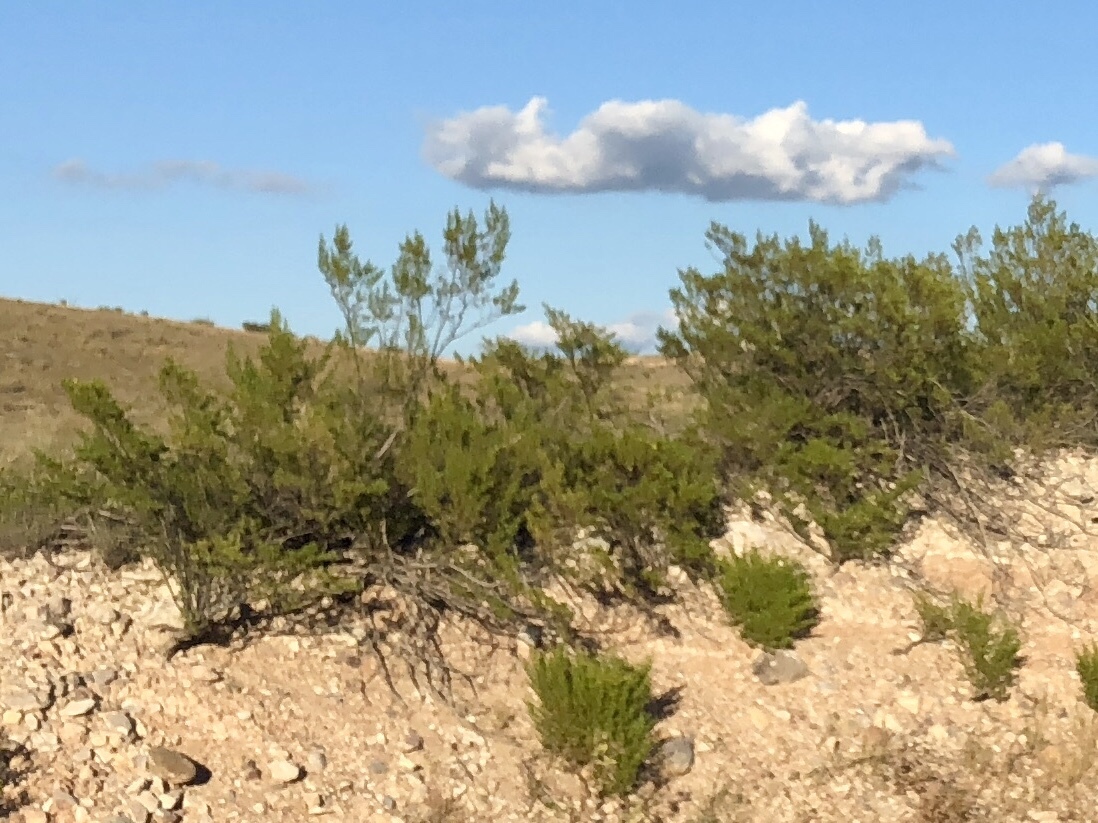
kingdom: Plantae
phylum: Tracheophyta
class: Magnoliopsida
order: Zygophyllales
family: Zygophyllaceae
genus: Larrea
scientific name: Larrea tridentata
